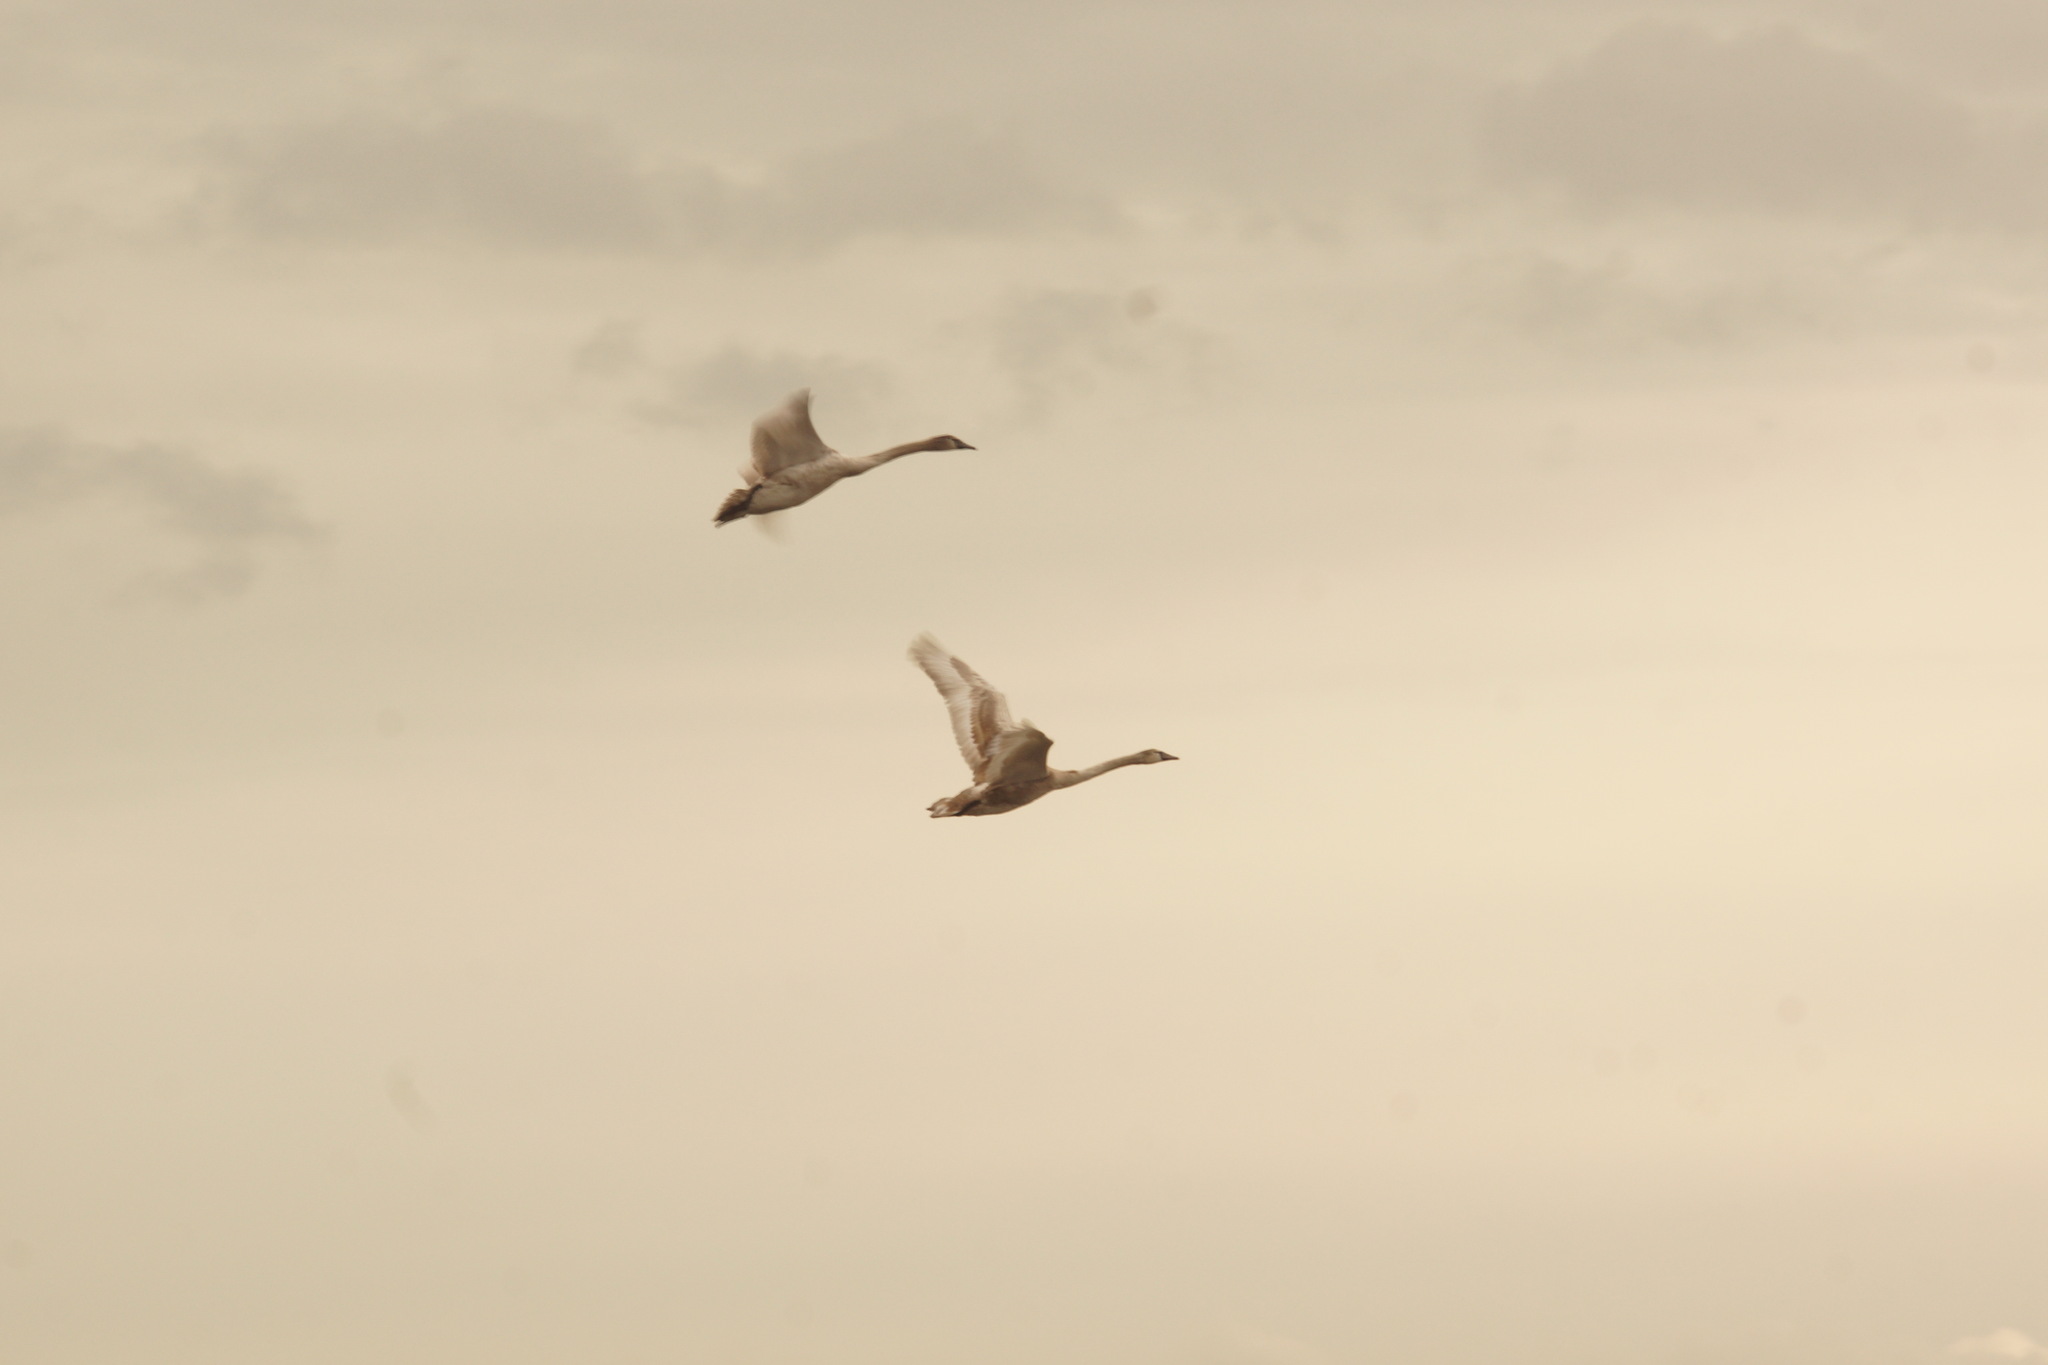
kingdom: Animalia
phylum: Chordata
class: Aves
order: Anseriformes
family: Anatidae
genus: Cygnus
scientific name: Cygnus olor
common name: Mute swan
